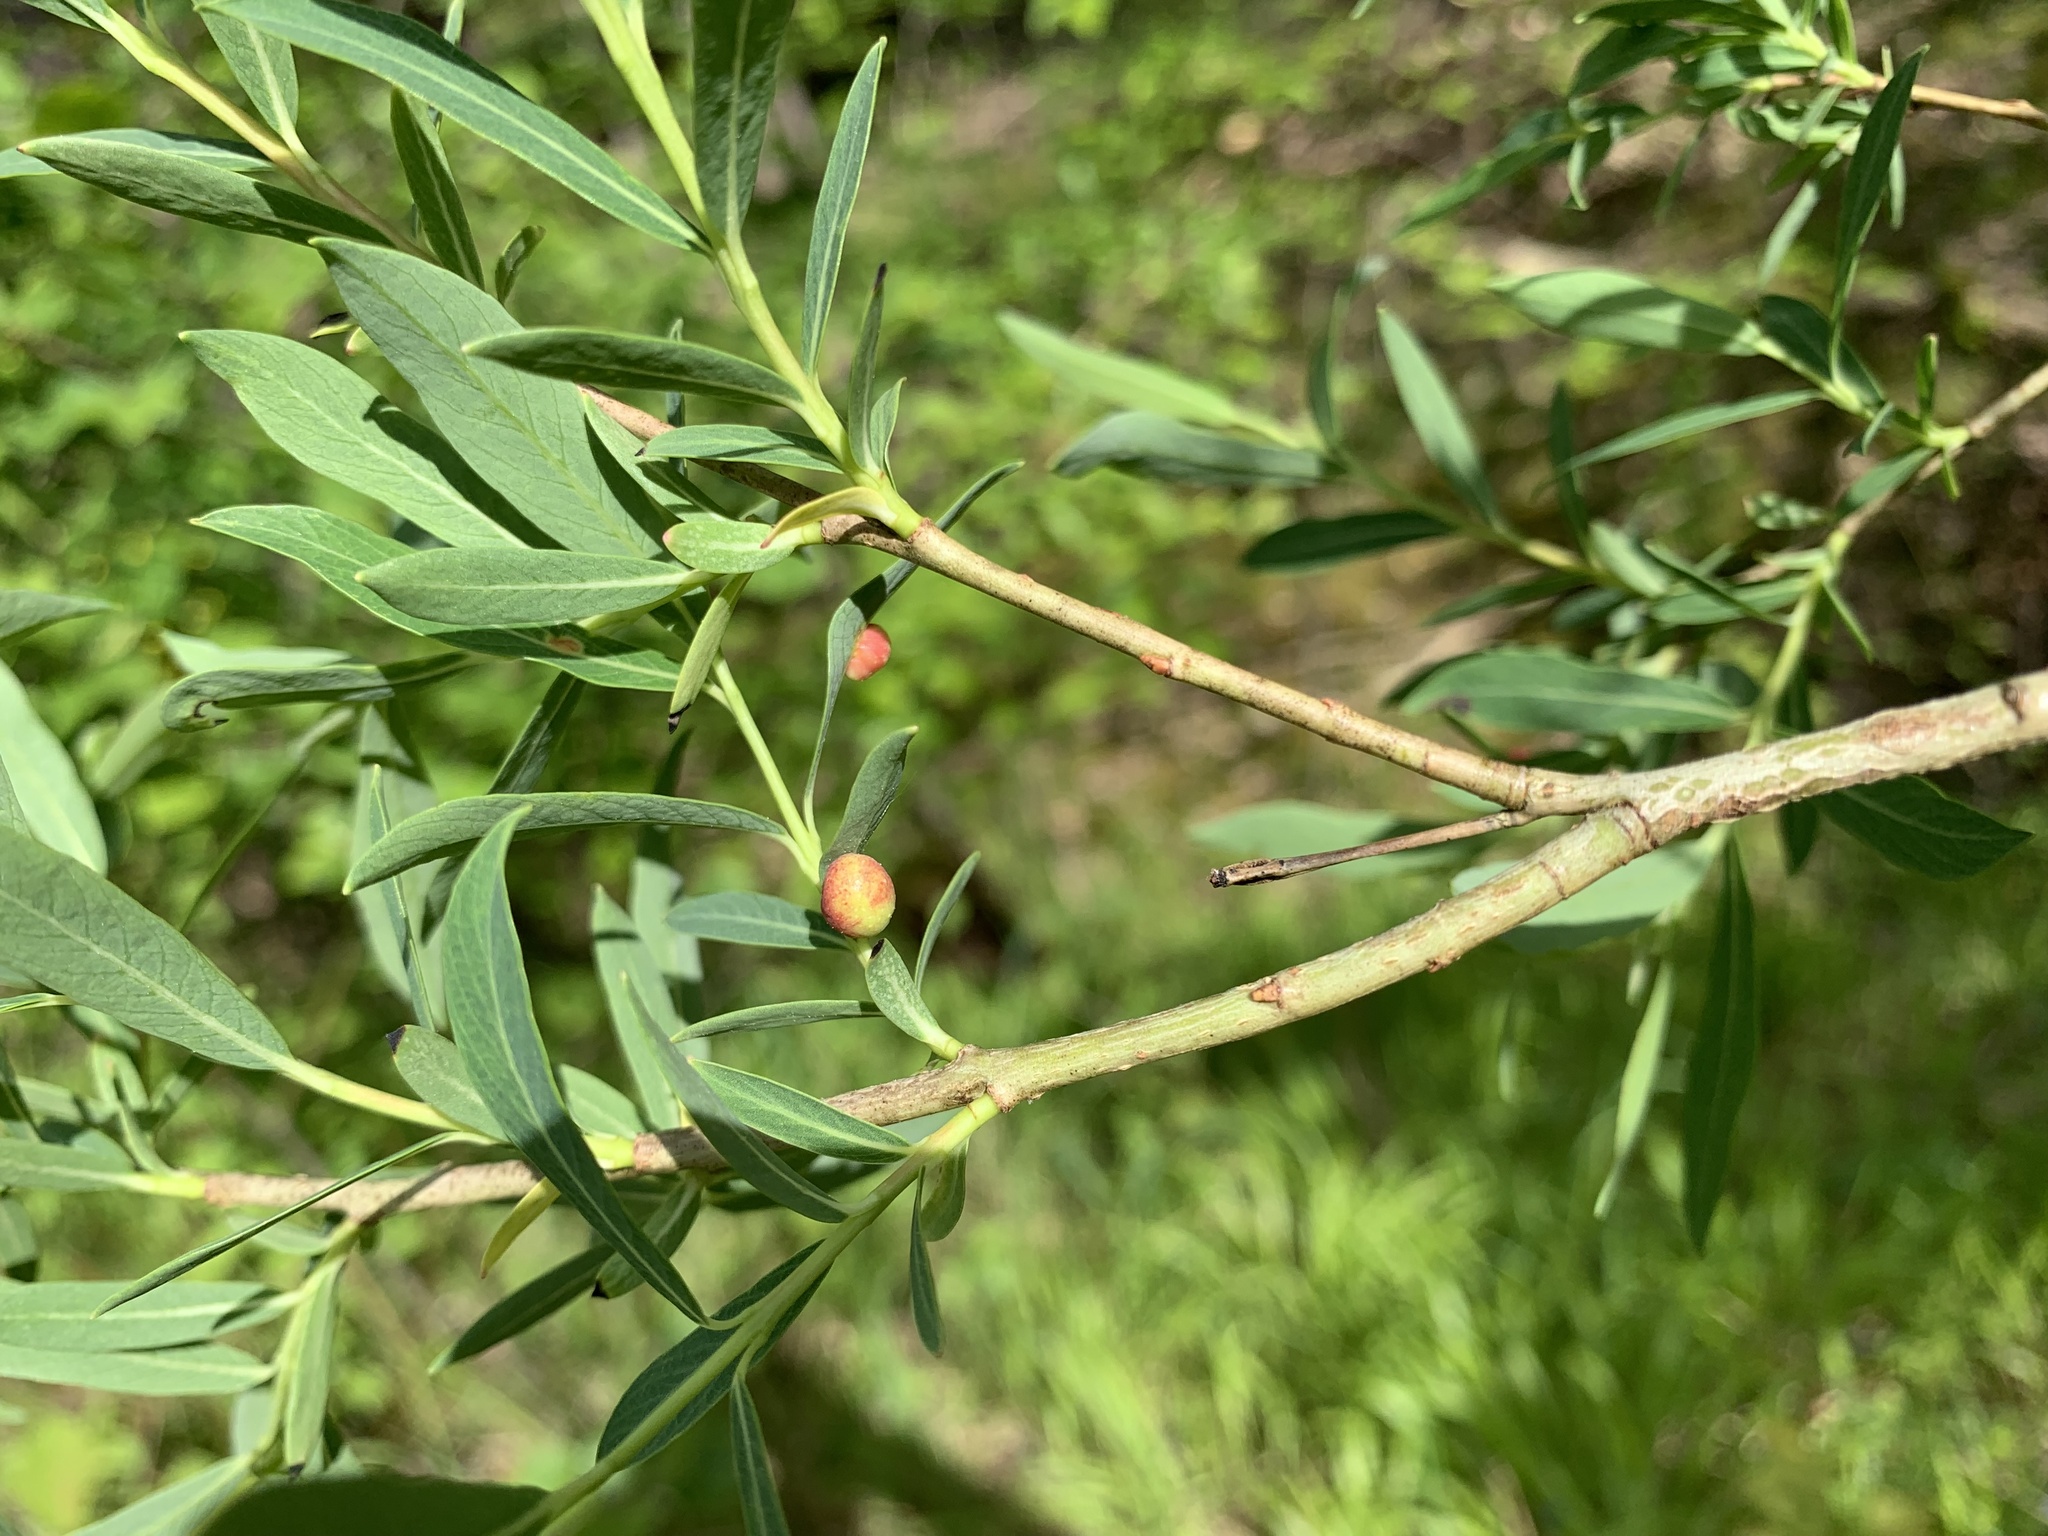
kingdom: Animalia
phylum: Arthropoda
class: Insecta
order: Hymenoptera
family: Tenthredinidae
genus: Euura
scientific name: Euura viminalis
